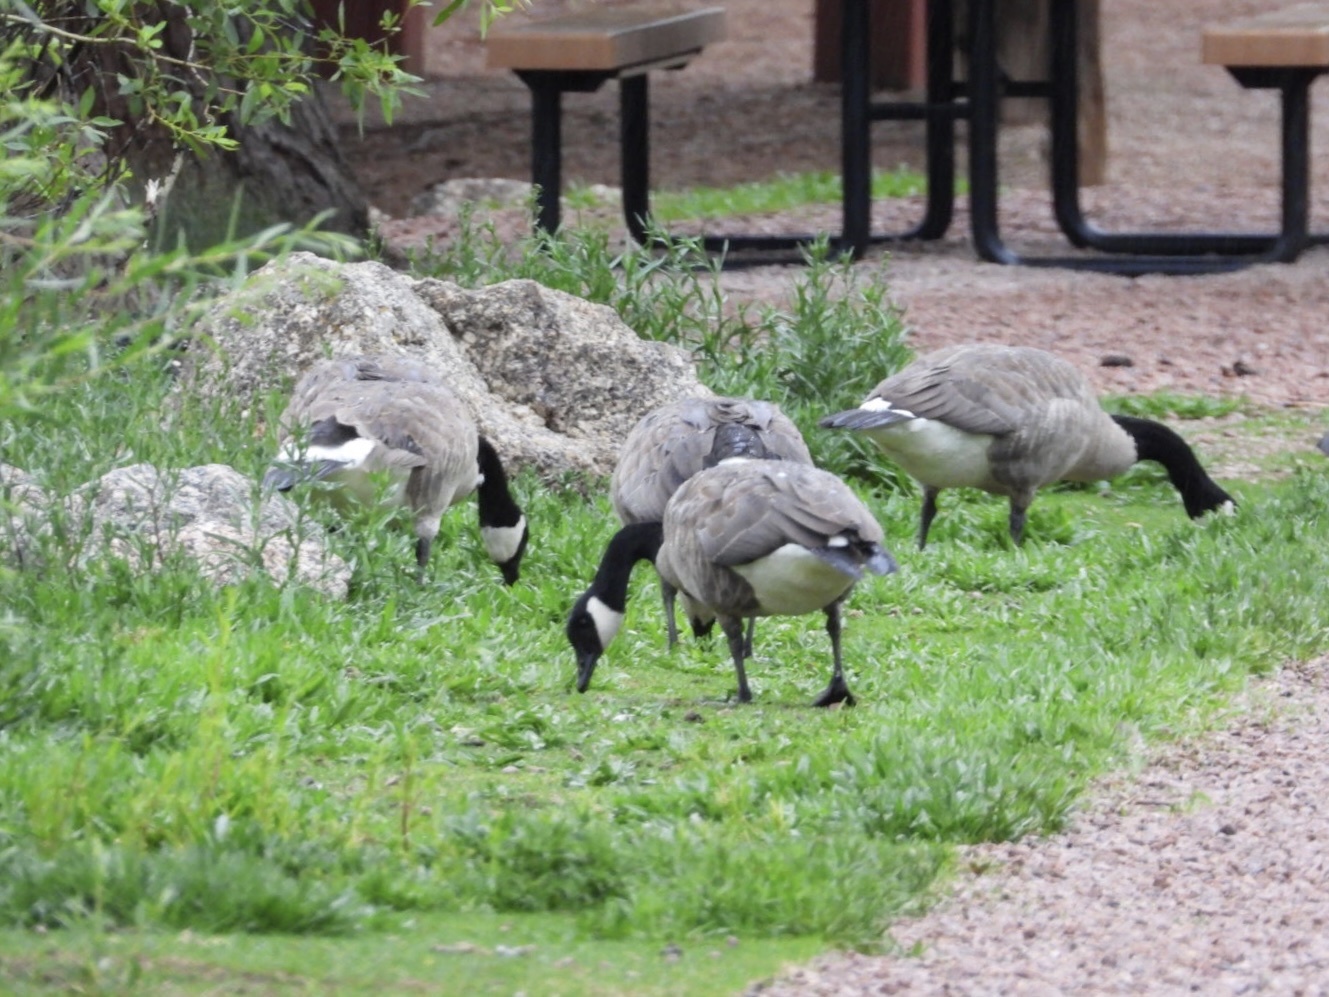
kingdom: Animalia
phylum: Chordata
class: Aves
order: Anseriformes
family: Anatidae
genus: Branta
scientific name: Branta canadensis
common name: Canada goose
